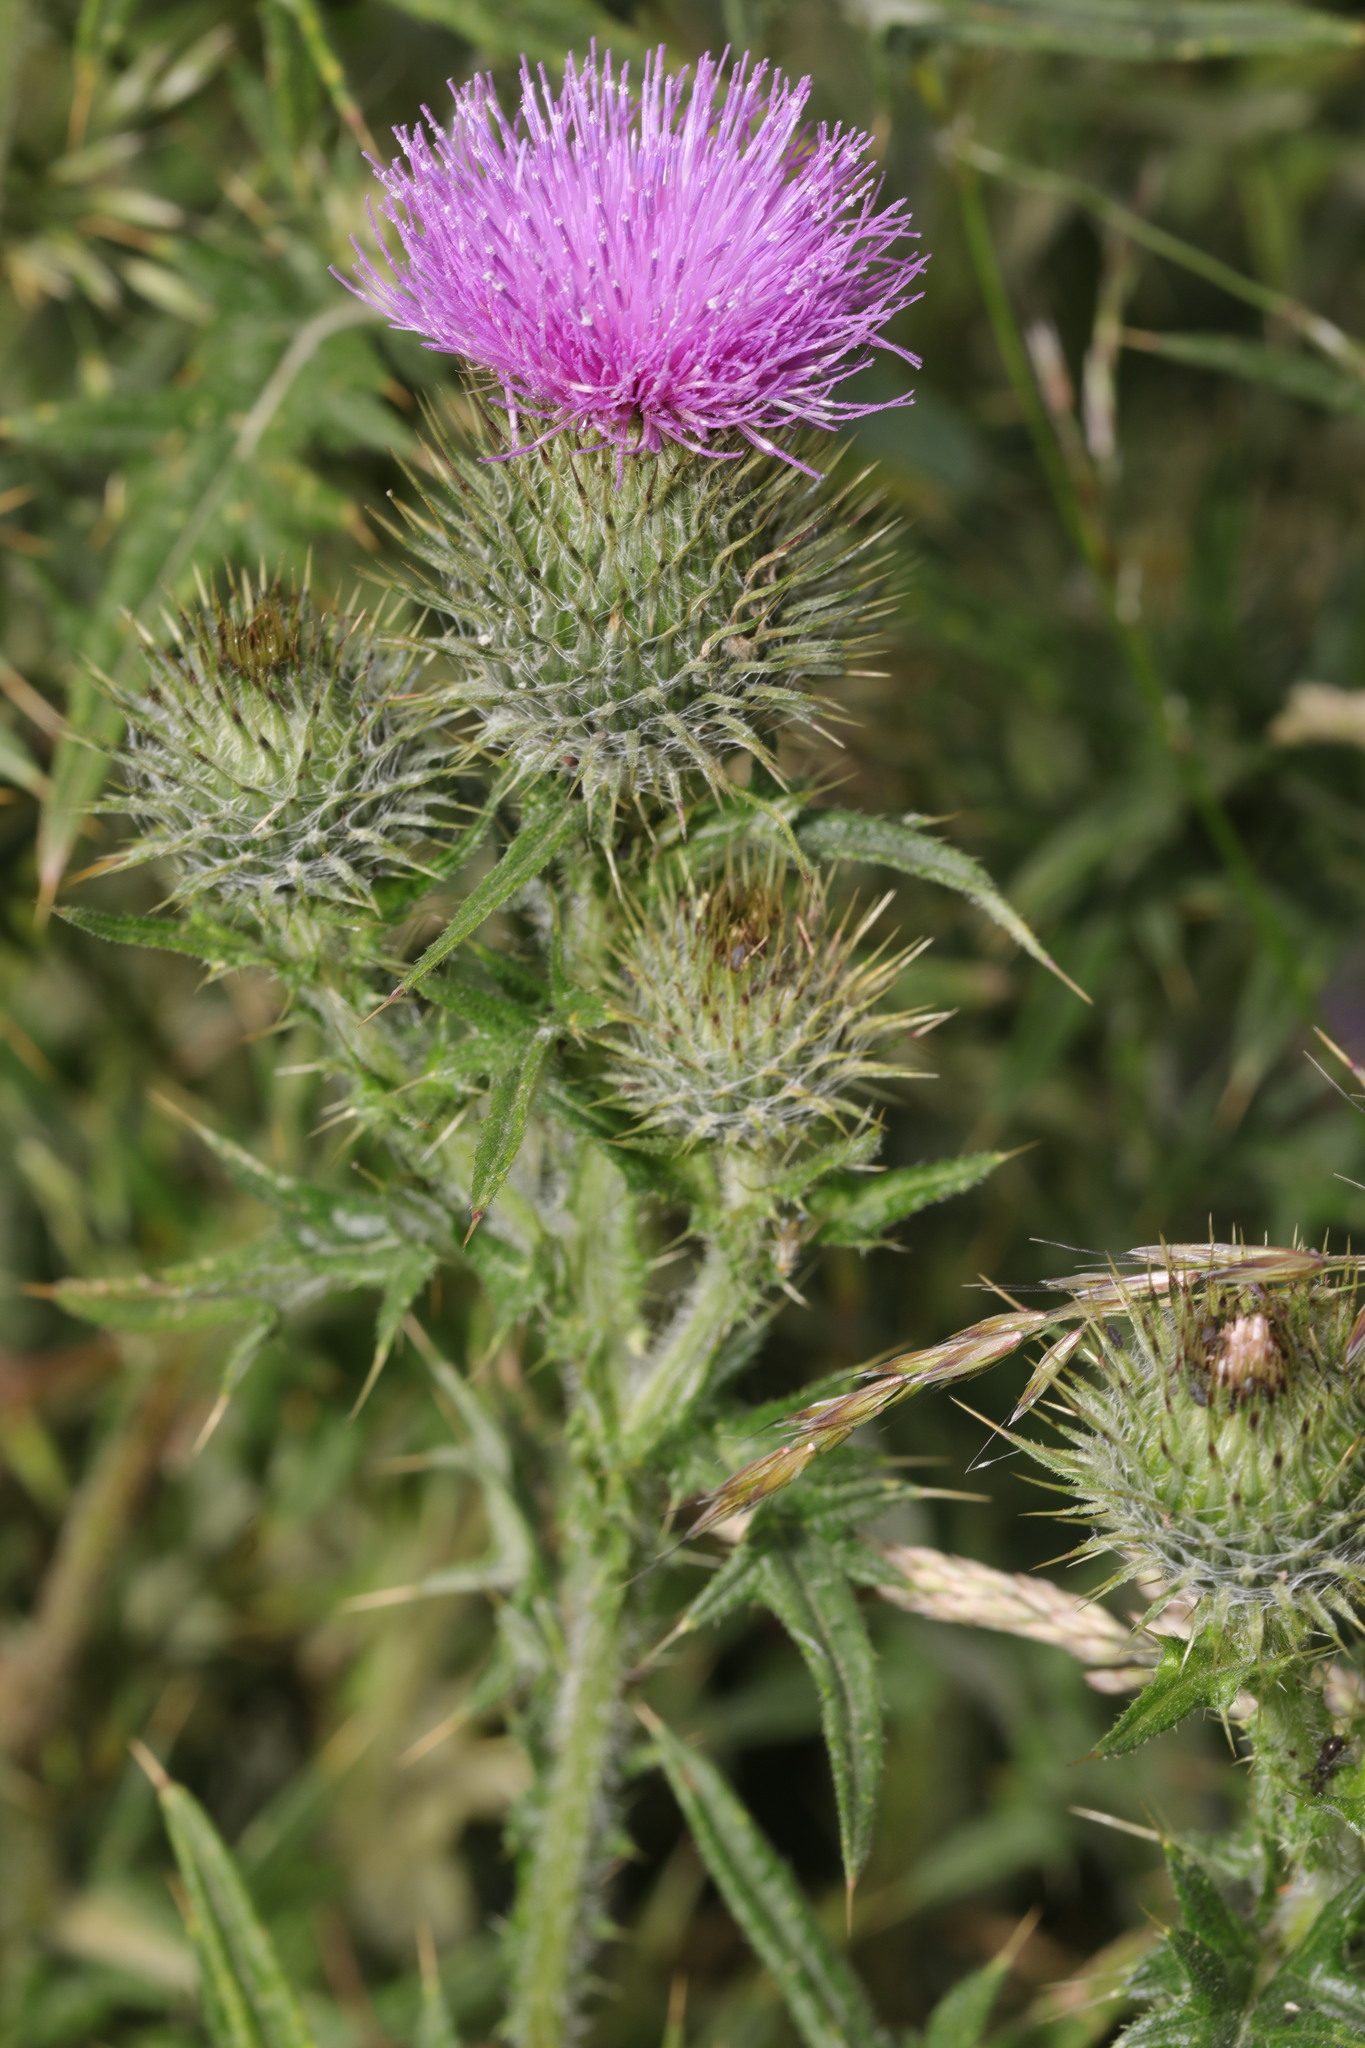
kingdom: Plantae
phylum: Tracheophyta
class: Magnoliopsida
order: Asterales
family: Asteraceae
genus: Cirsium
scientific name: Cirsium vulgare
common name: Bull thistle
